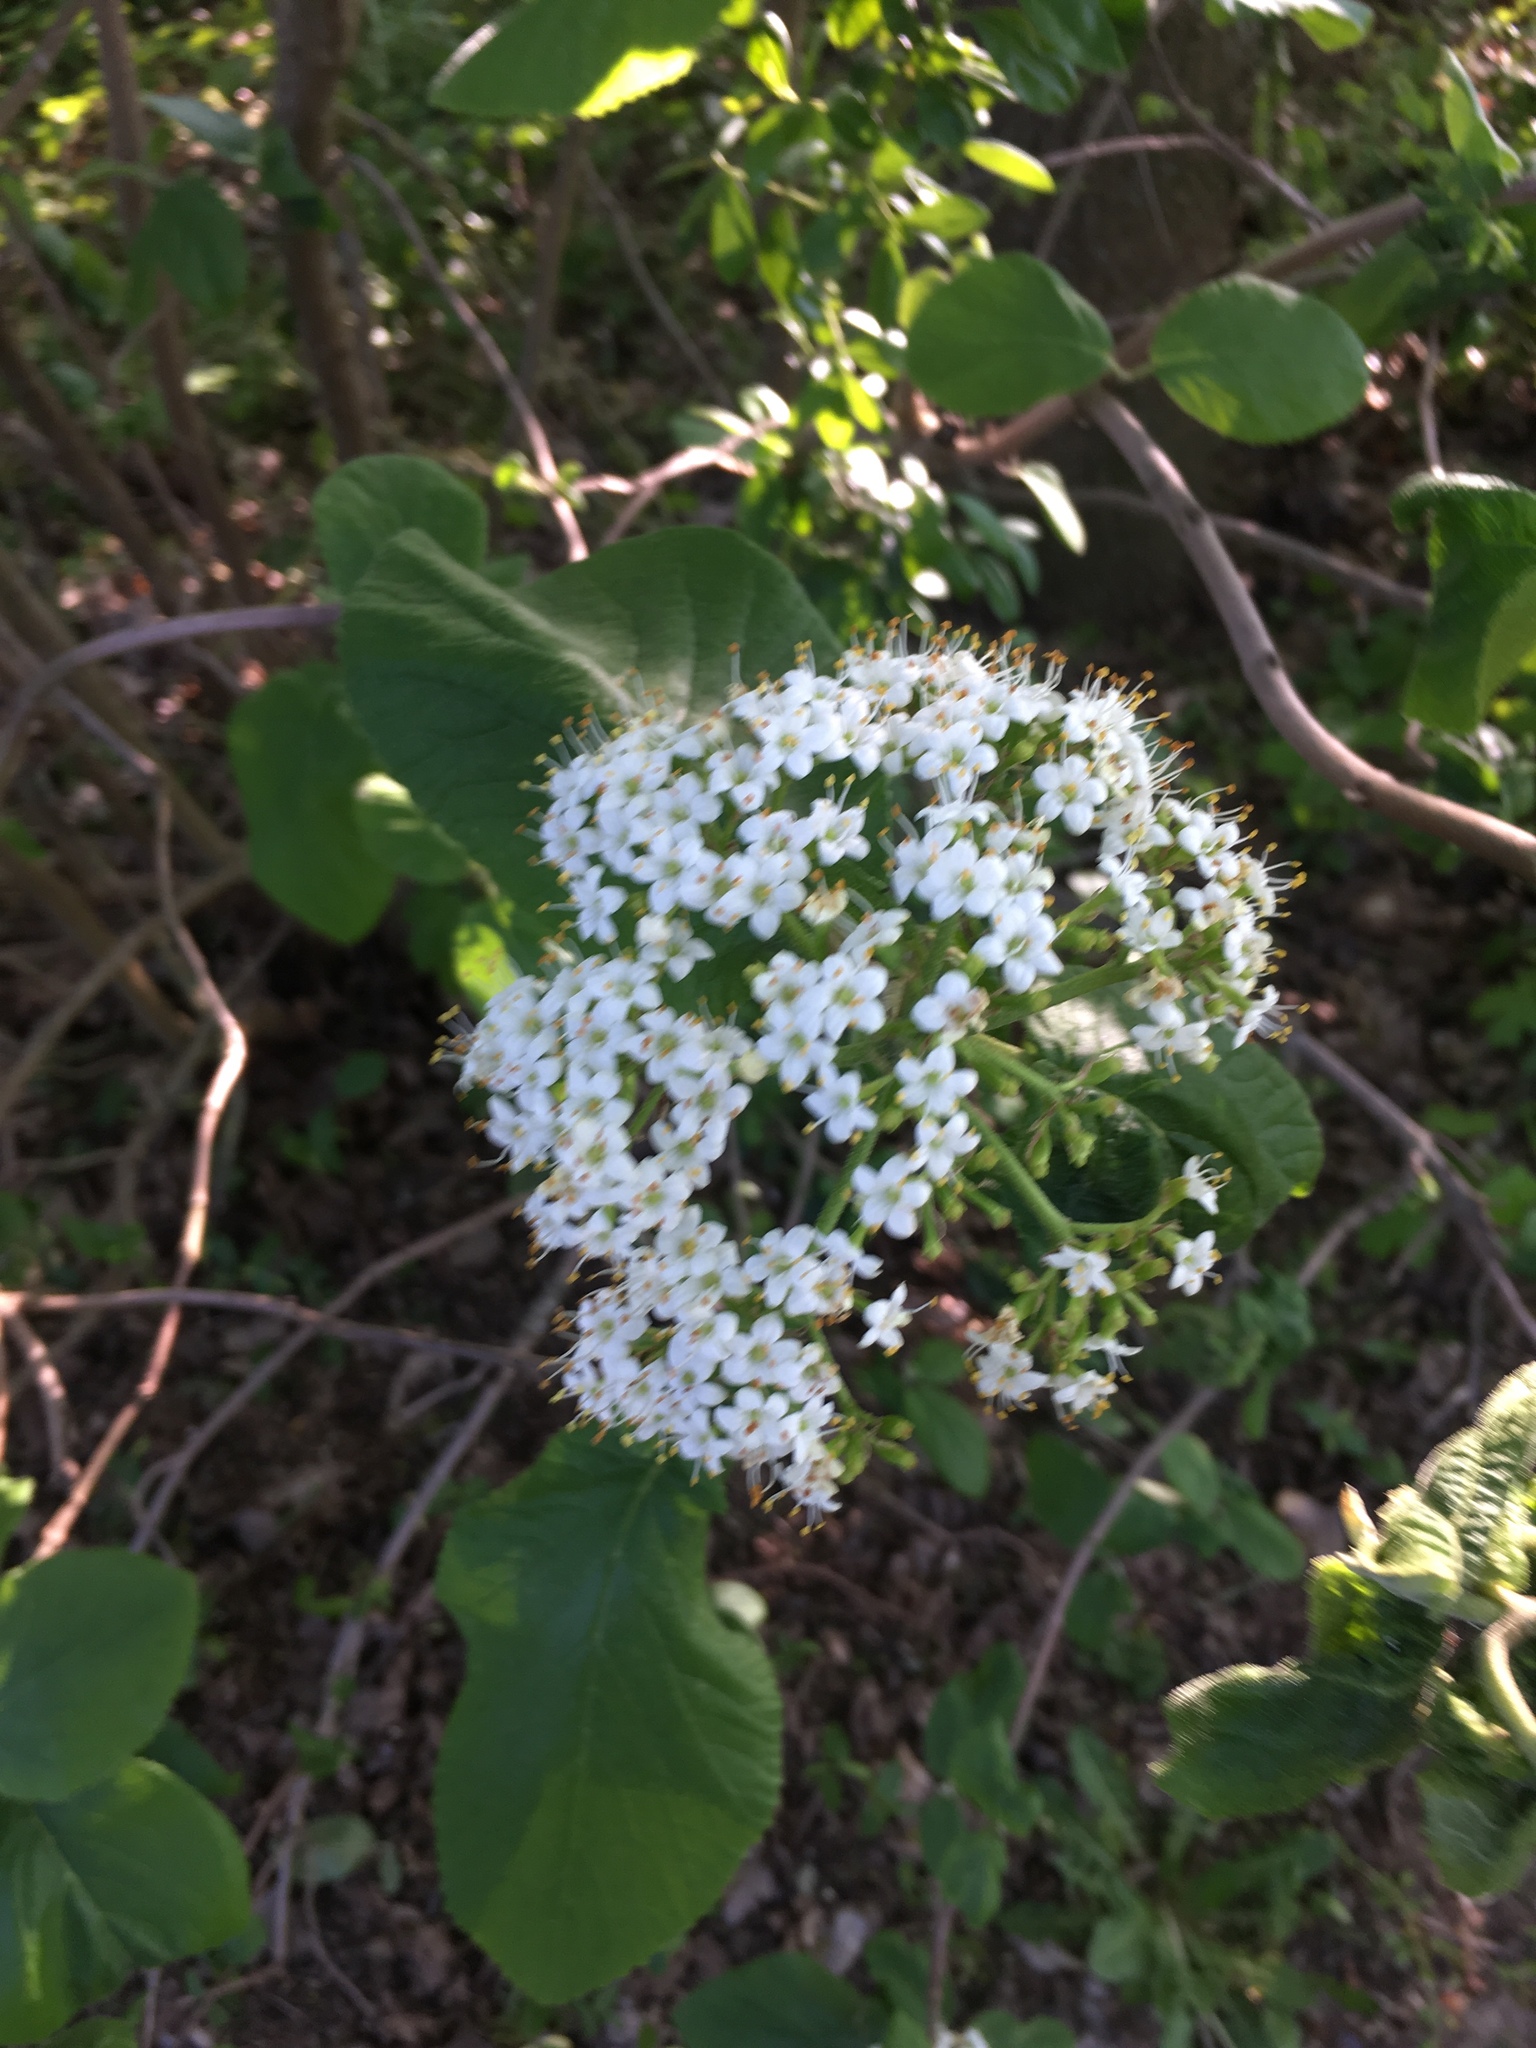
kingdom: Plantae
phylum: Tracheophyta
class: Magnoliopsida
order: Dipsacales
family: Viburnaceae
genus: Viburnum
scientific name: Viburnum lantana
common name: Wayfaring tree
